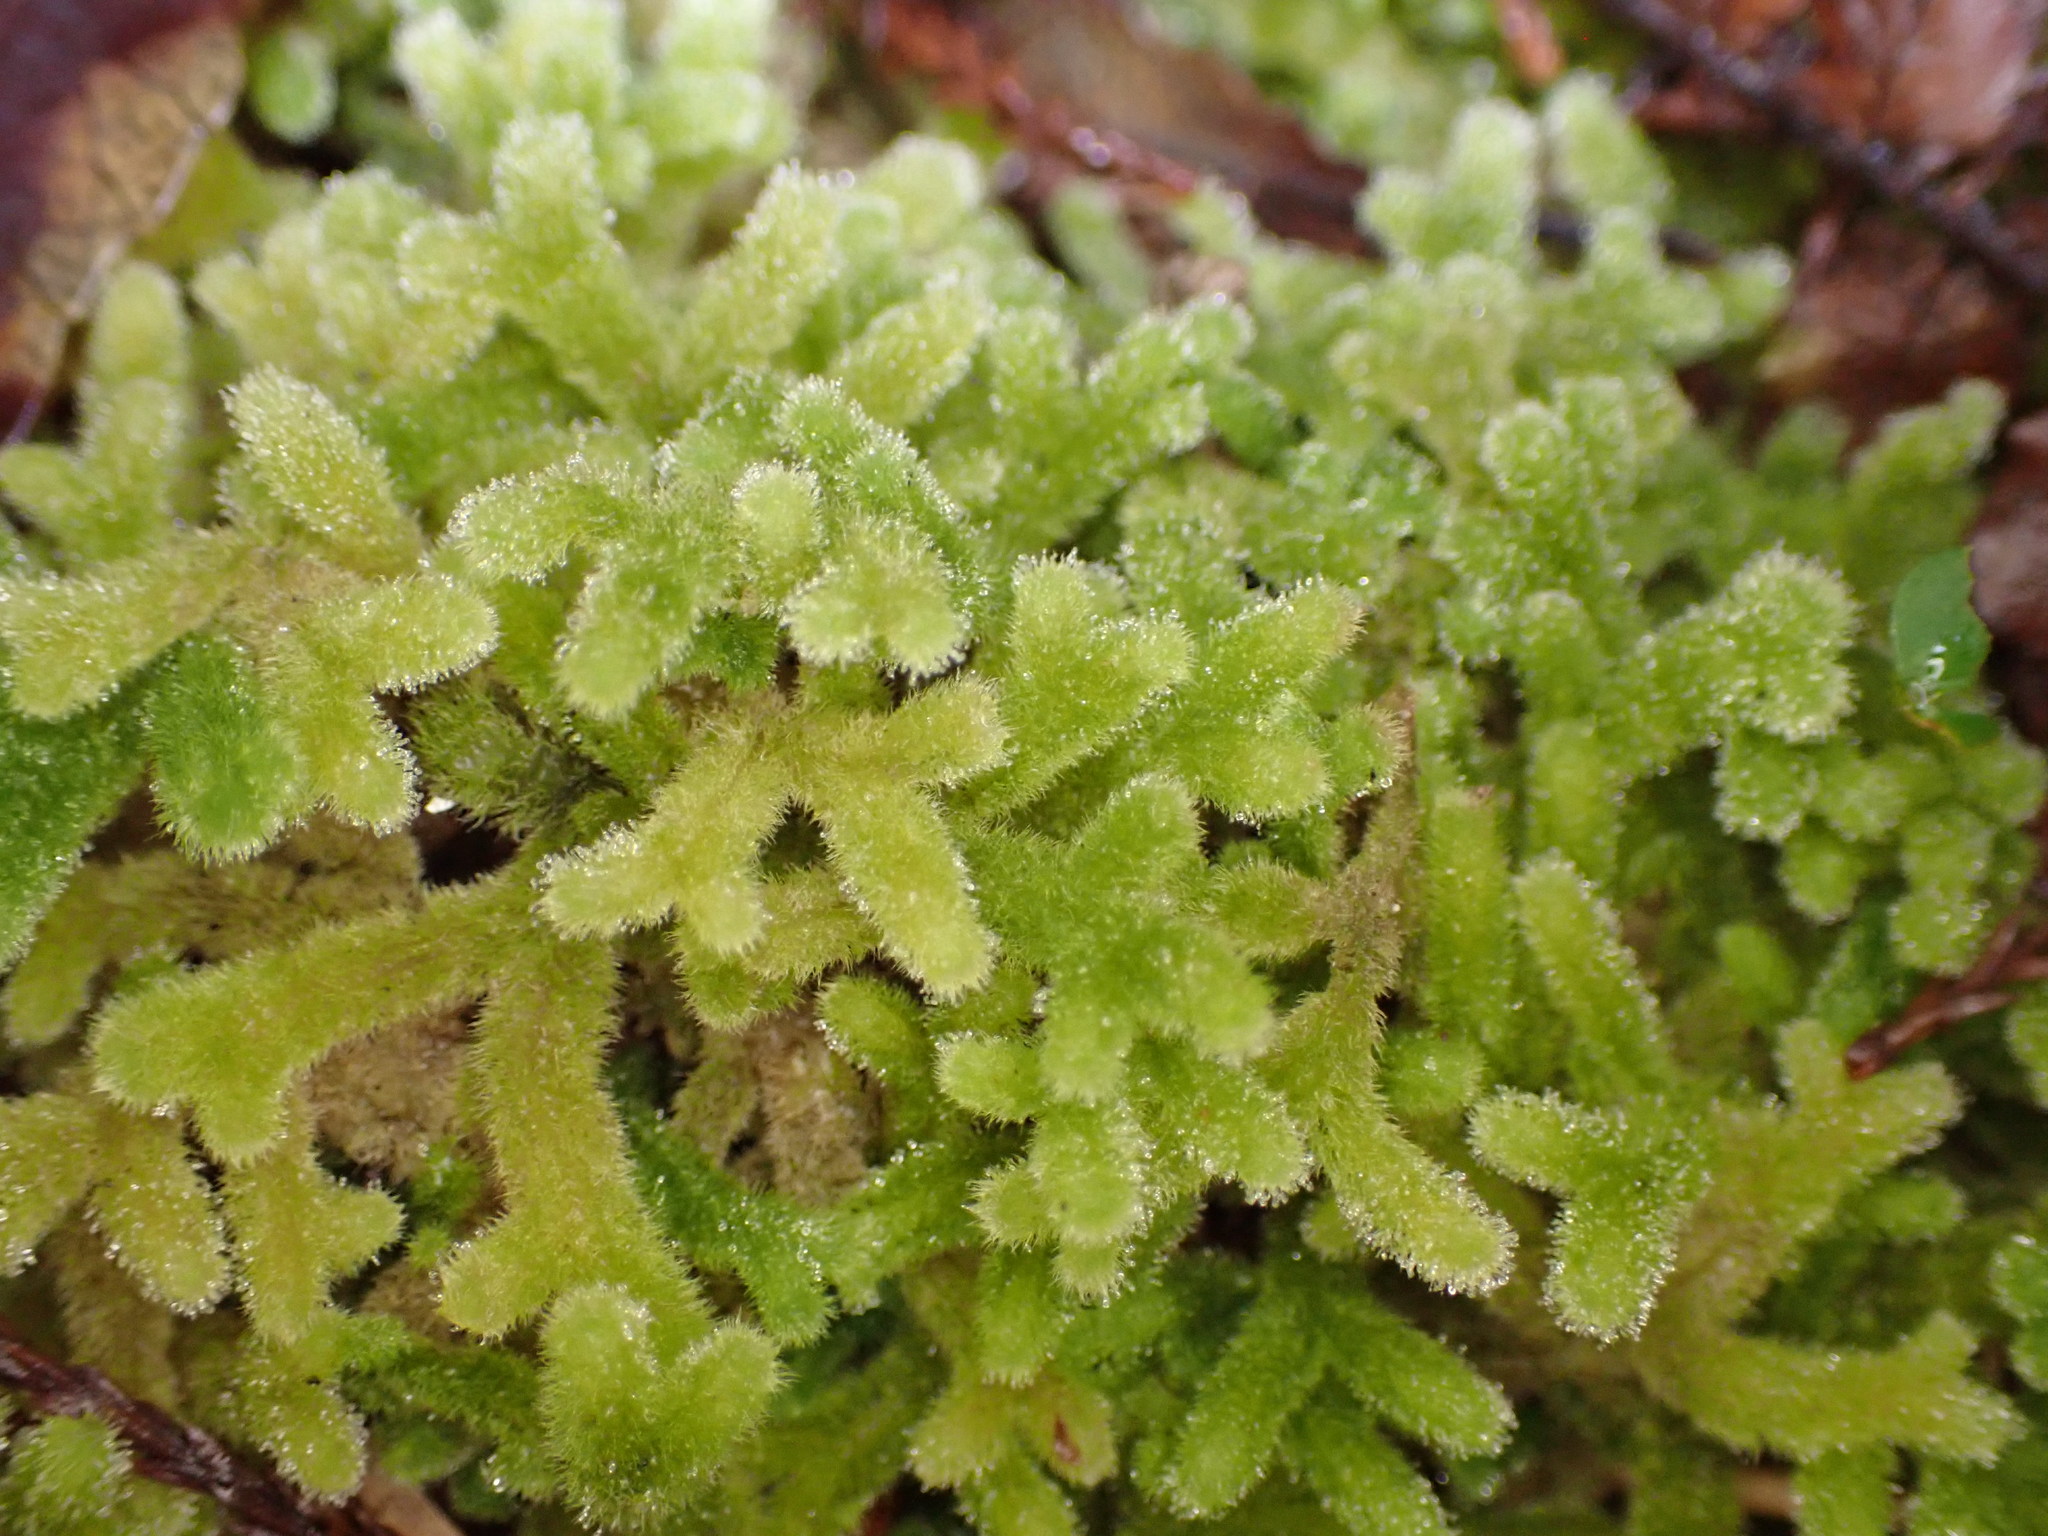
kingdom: Plantae
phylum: Marchantiophyta
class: Jungermanniopsida
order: Jungermanniales
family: Trichocoleaceae
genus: Leiomitra
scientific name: Leiomitra lanata
